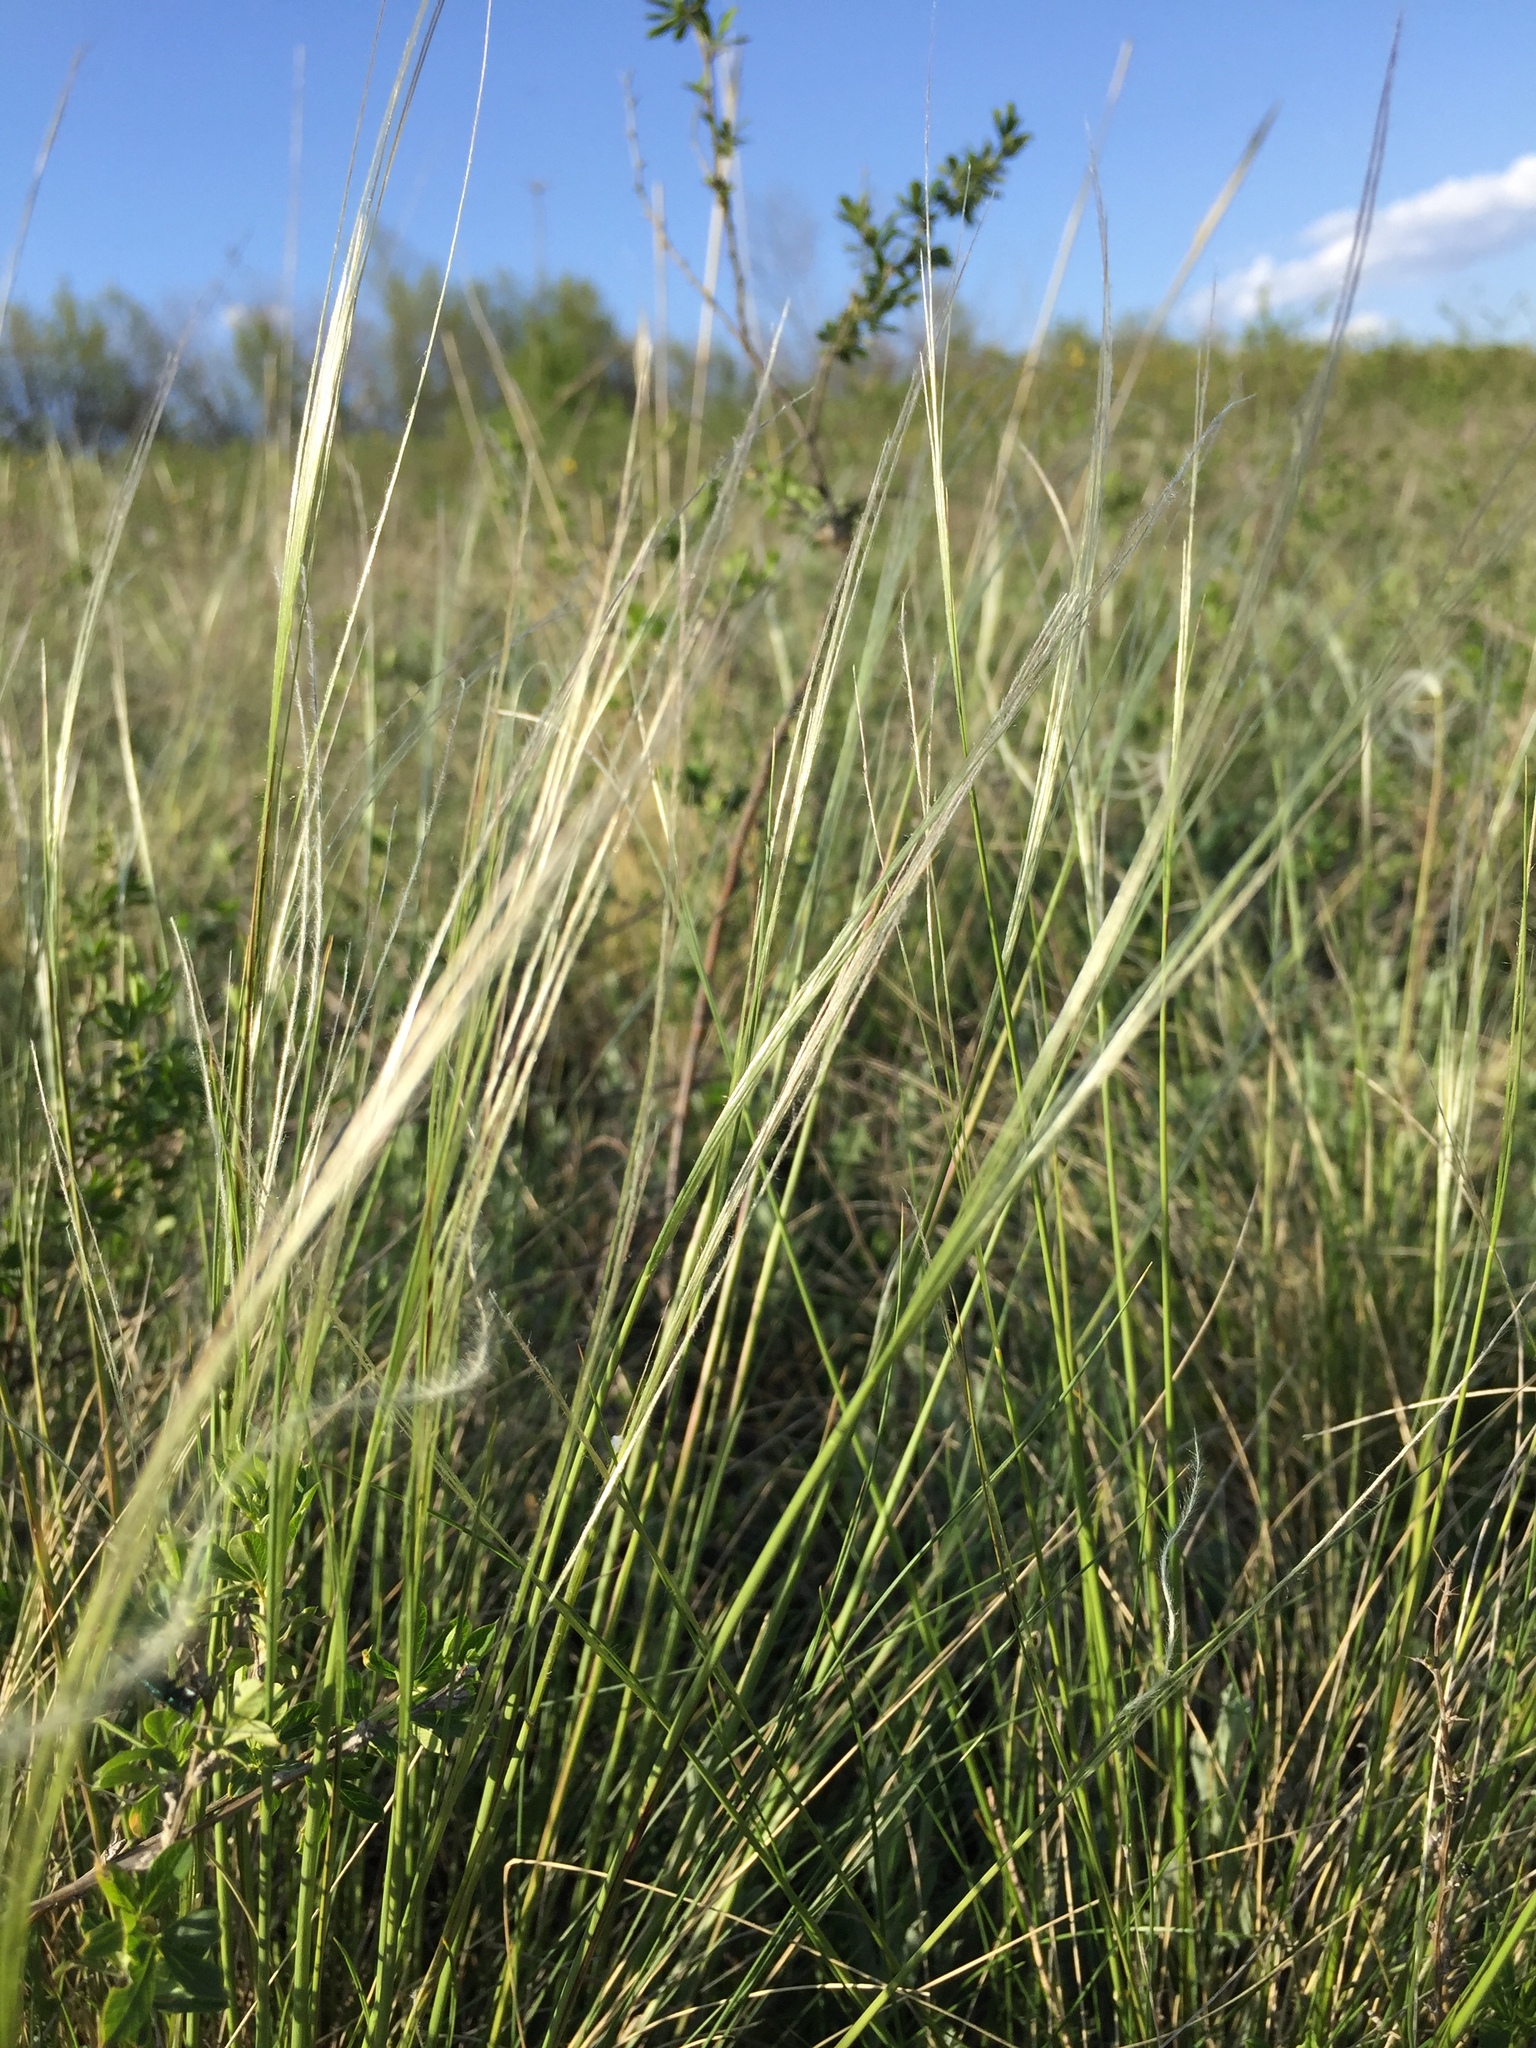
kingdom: Plantae
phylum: Tracheophyta
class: Liliopsida
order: Poales
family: Poaceae
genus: Stipa
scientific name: Stipa pennata
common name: European feather grass
